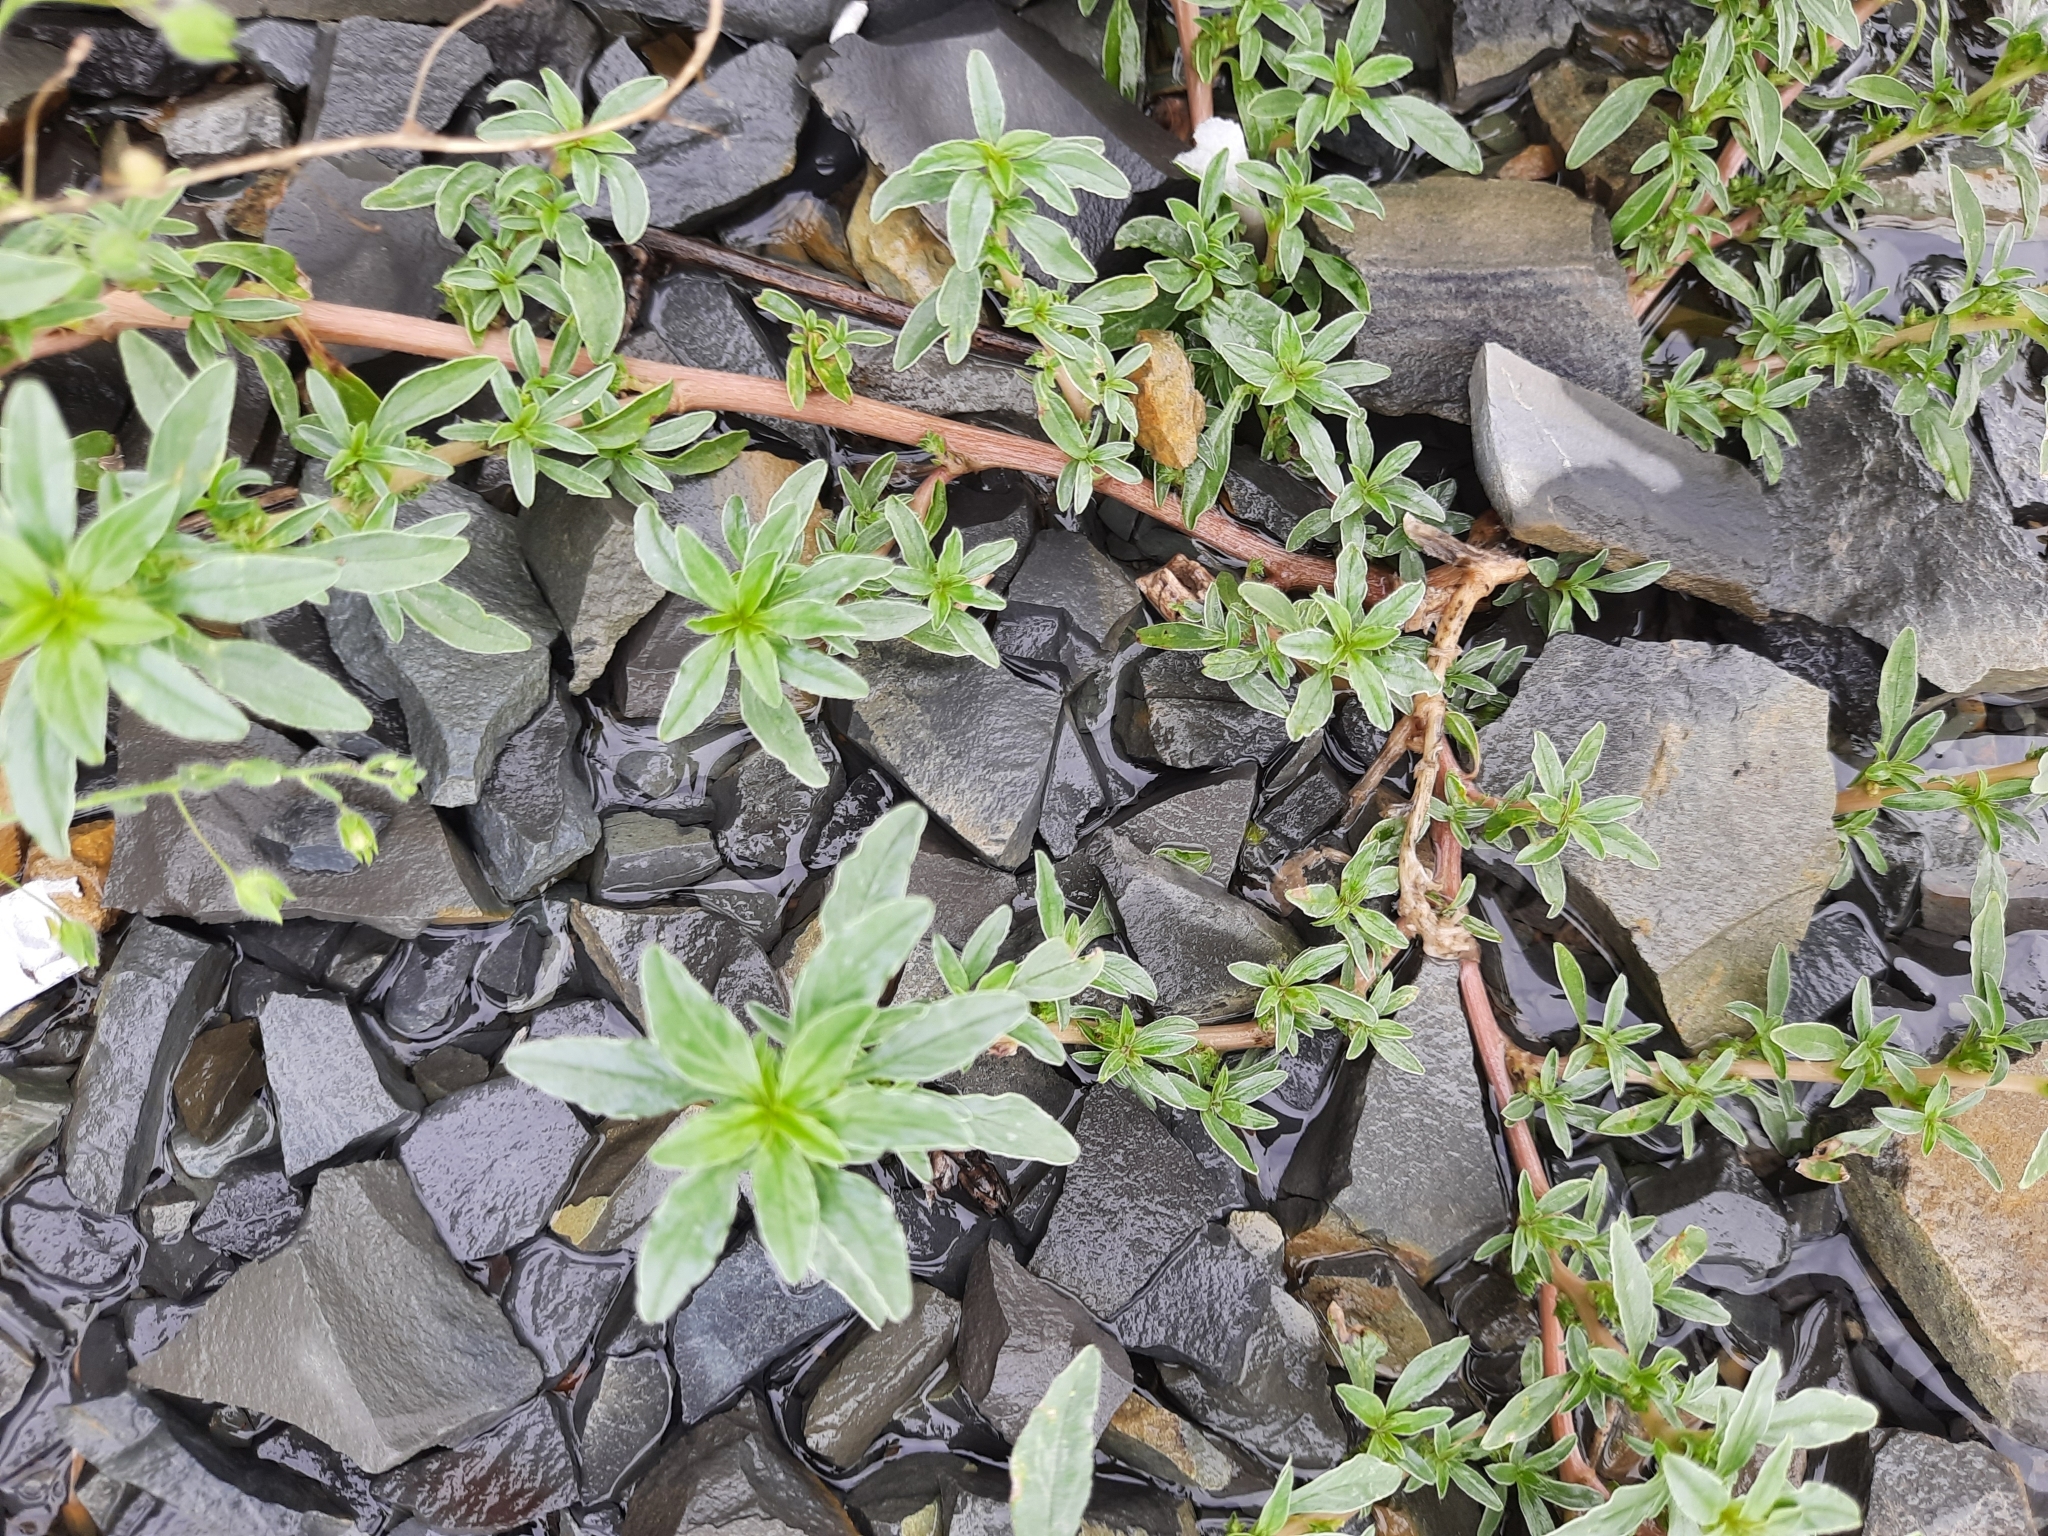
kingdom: Plantae
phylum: Tracheophyta
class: Magnoliopsida
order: Caryophyllales
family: Amaranthaceae
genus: Amaranthus
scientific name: Amaranthus blitoides
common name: Prostrate pigweed
